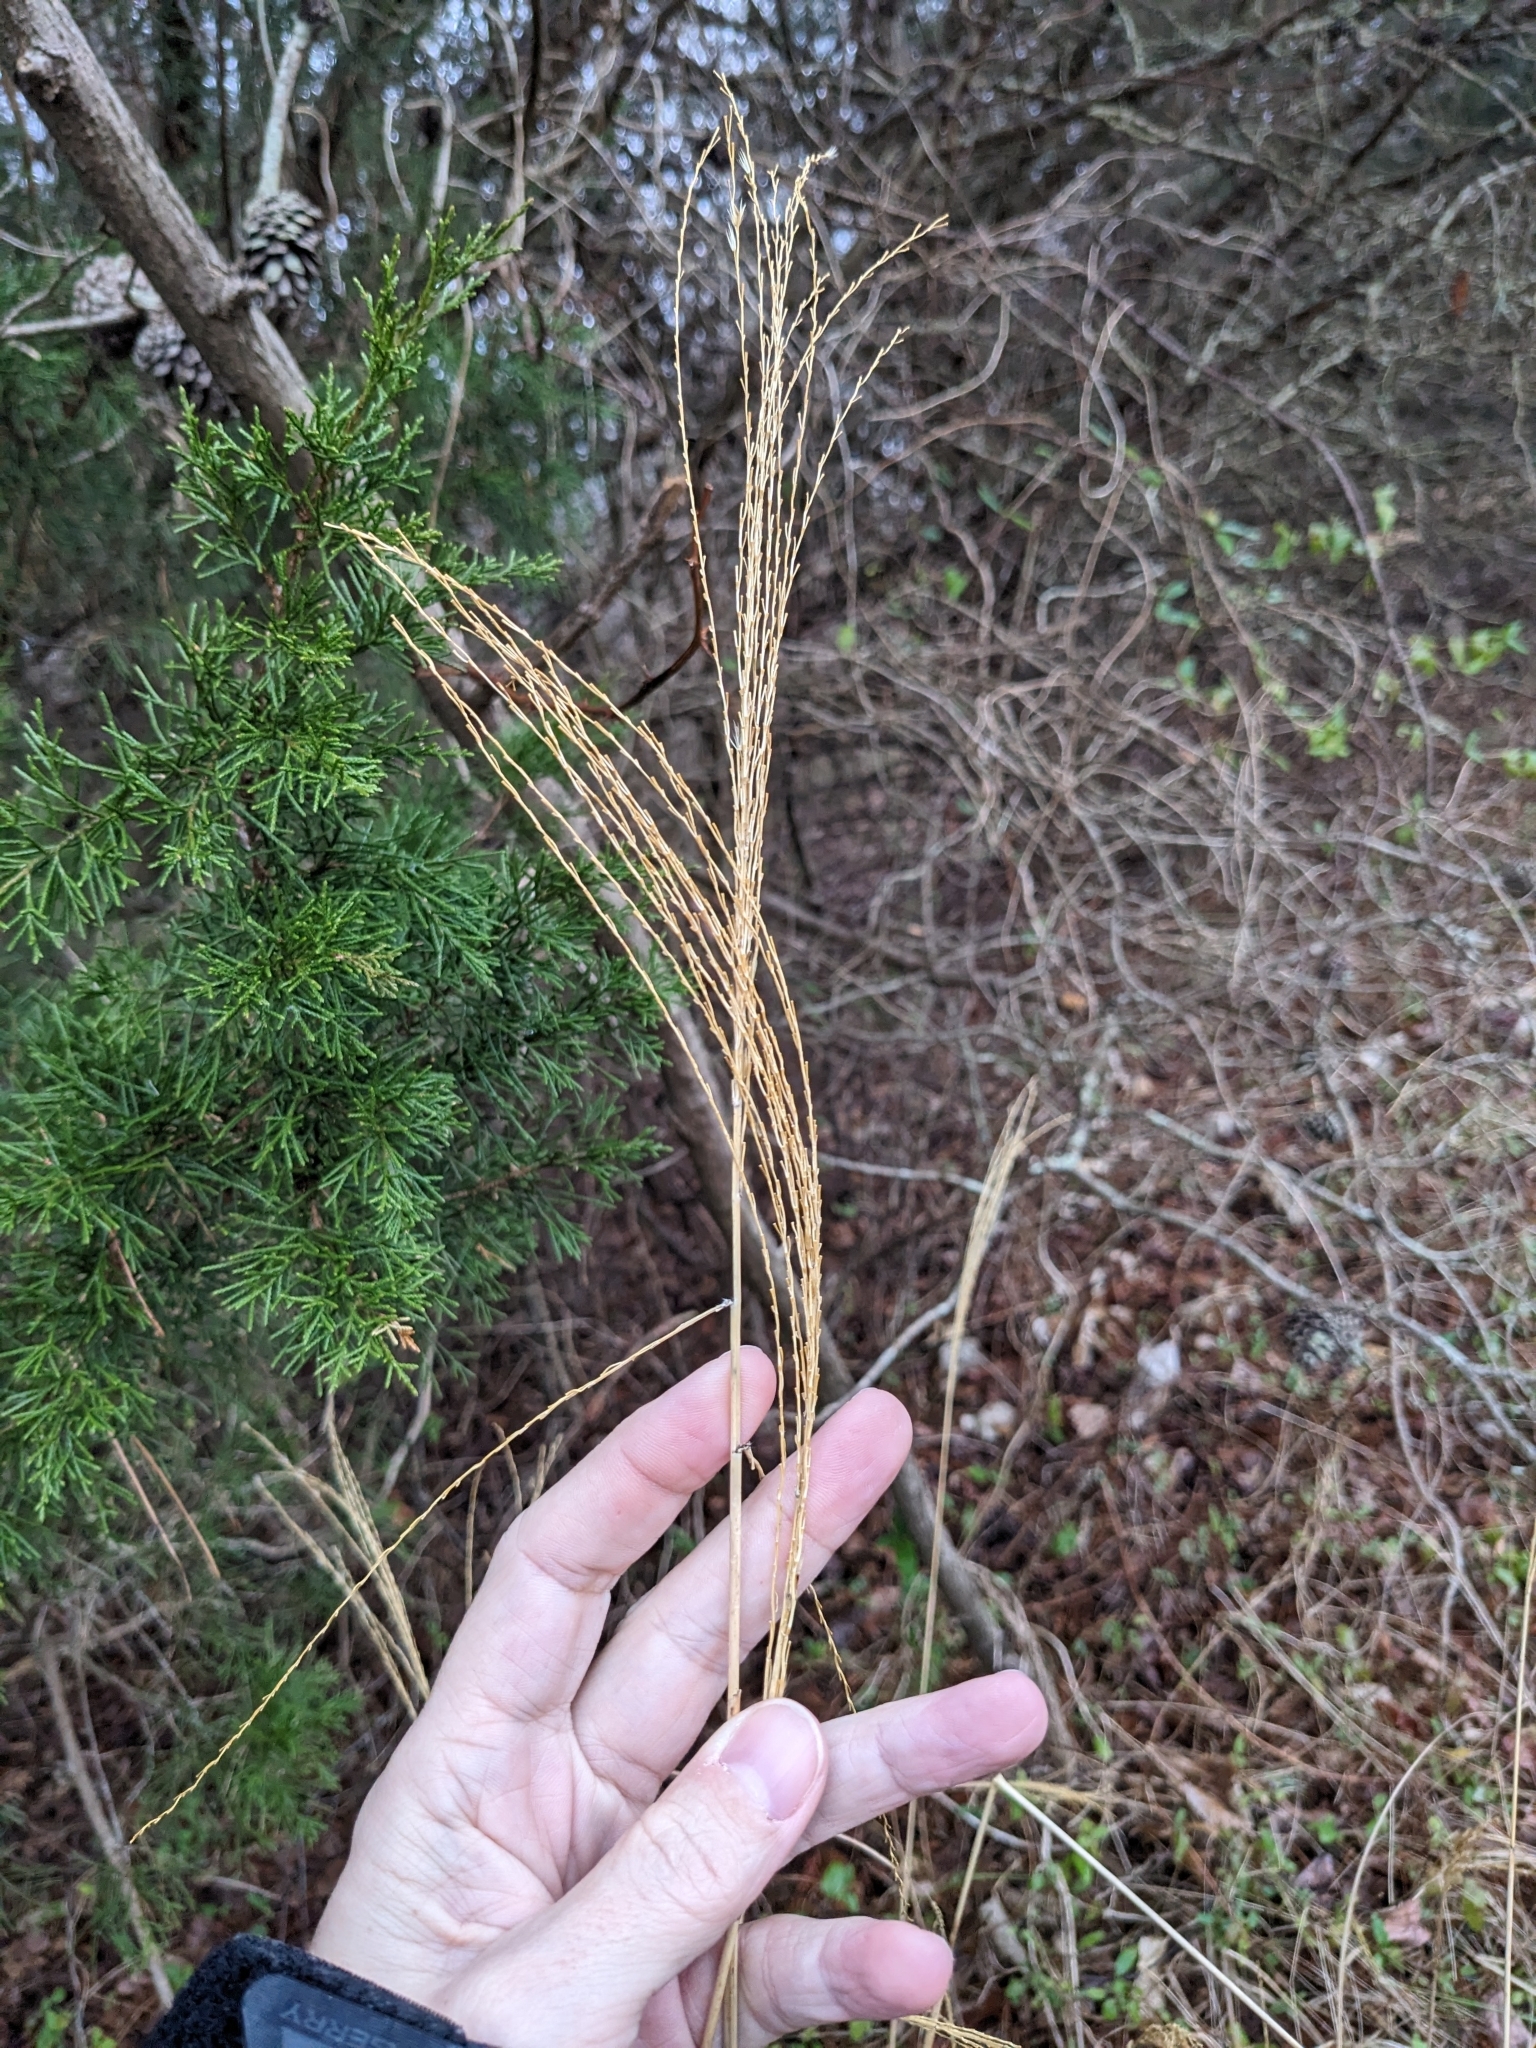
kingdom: Plantae
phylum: Tracheophyta
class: Liliopsida
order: Poales
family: Poaceae
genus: Miscanthus
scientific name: Miscanthus sinensis
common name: Chinese silvergrass
